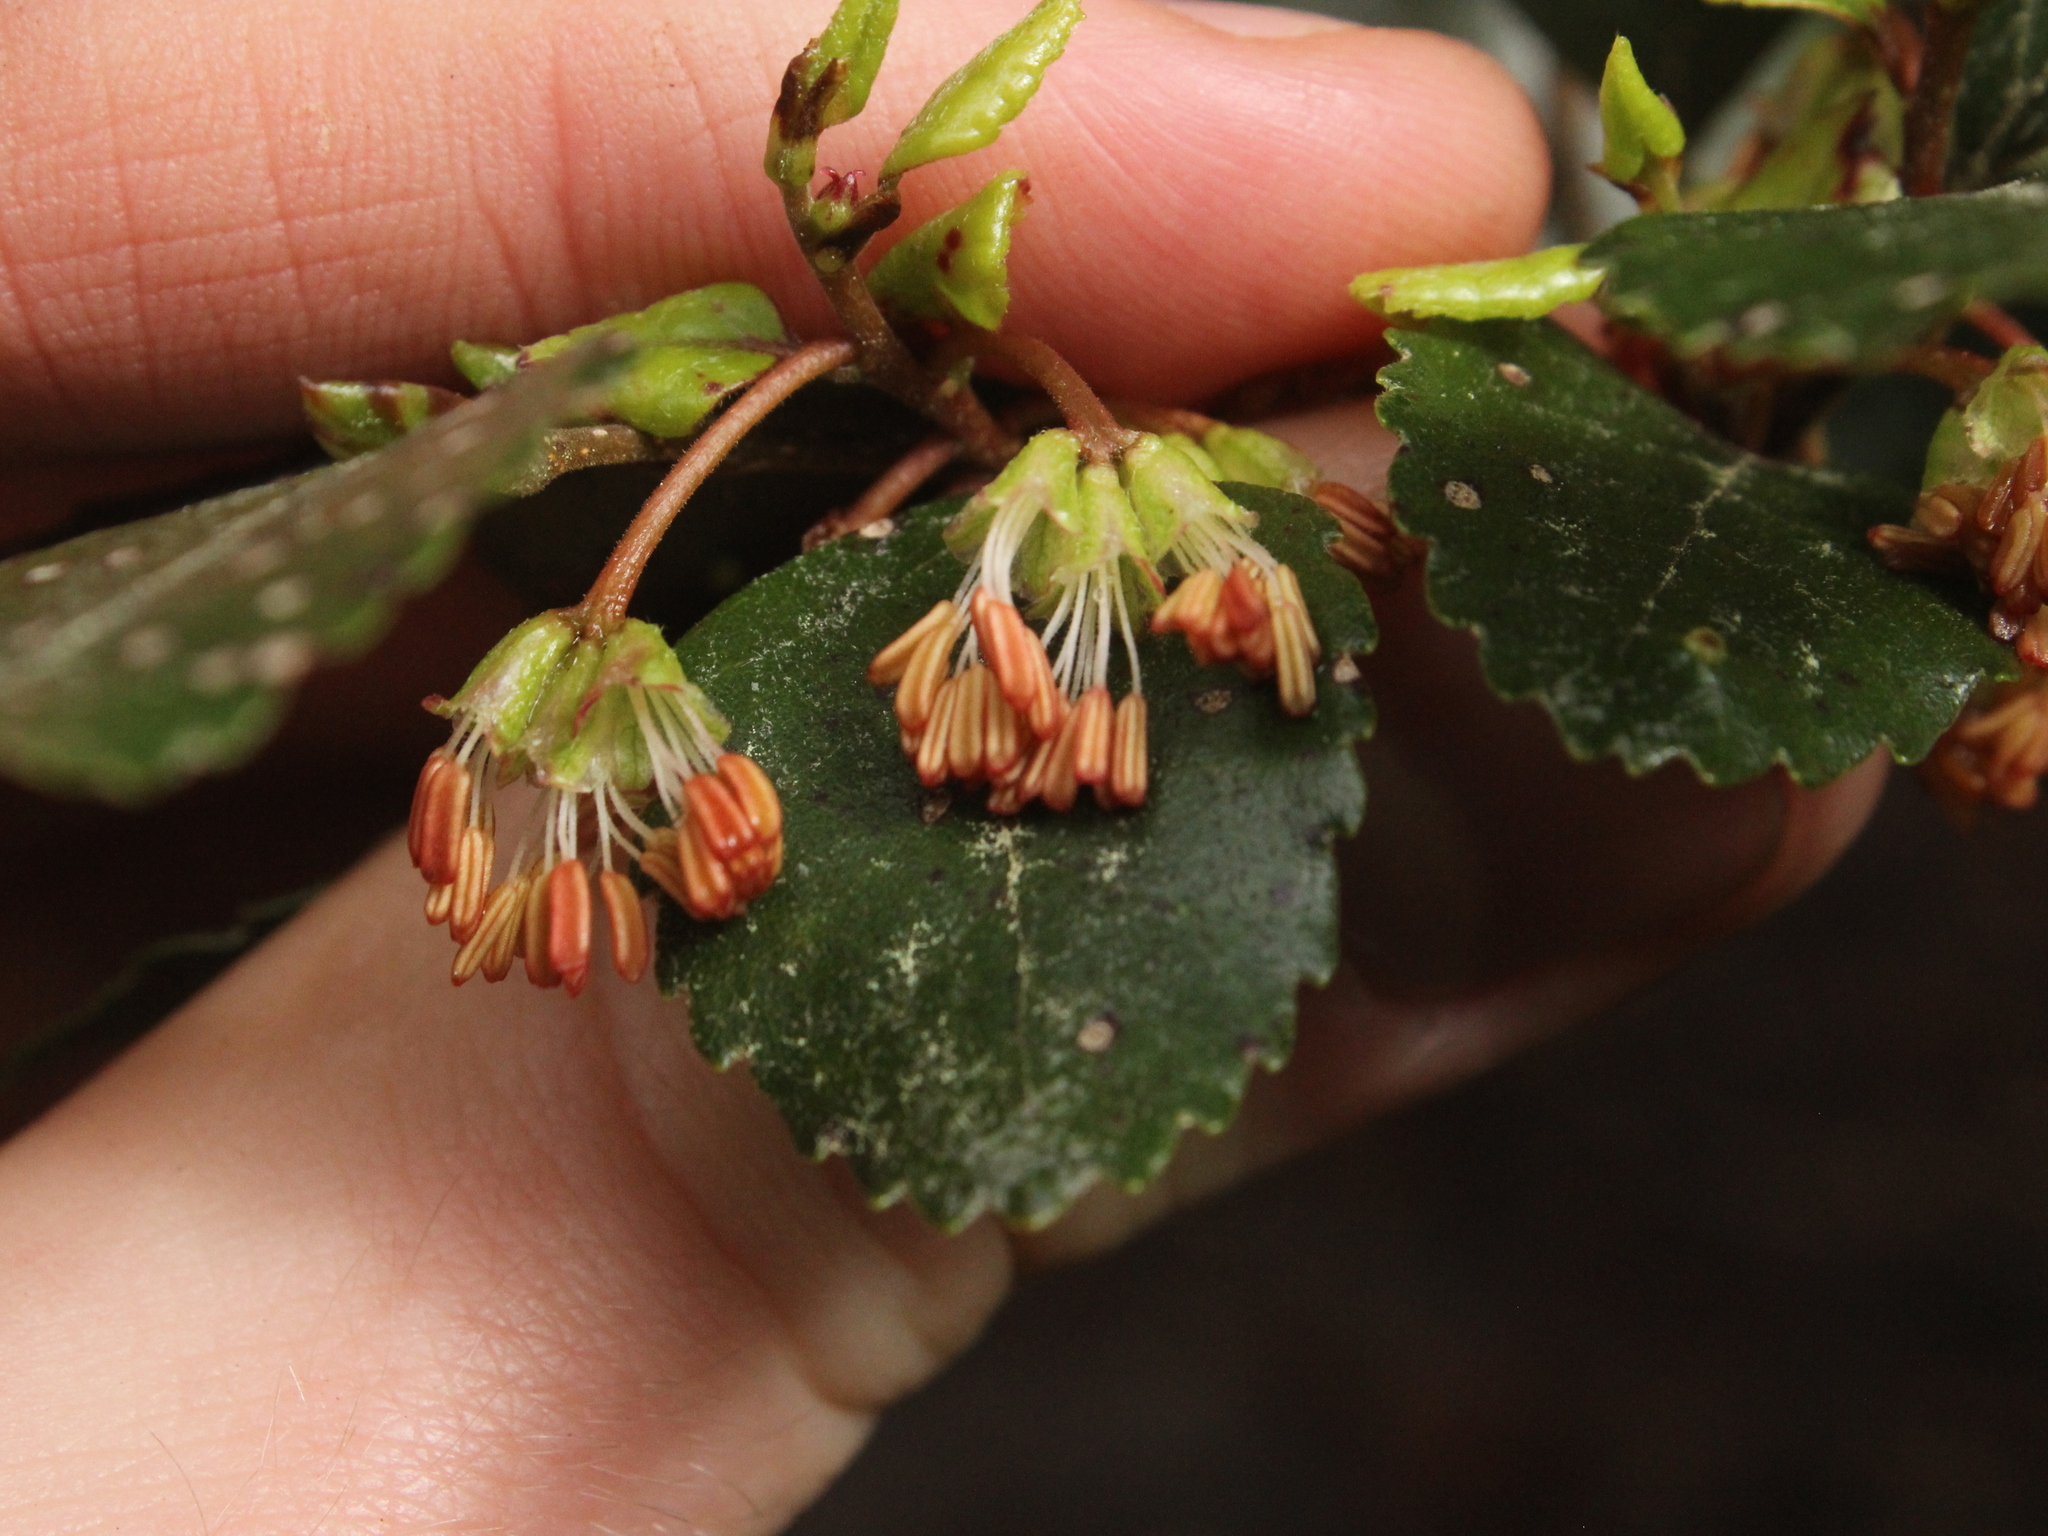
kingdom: Plantae
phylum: Tracheophyta
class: Magnoliopsida
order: Fagales
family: Nothofagaceae
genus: Nothofagus
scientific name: Nothofagus truncata
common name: Hard beech
